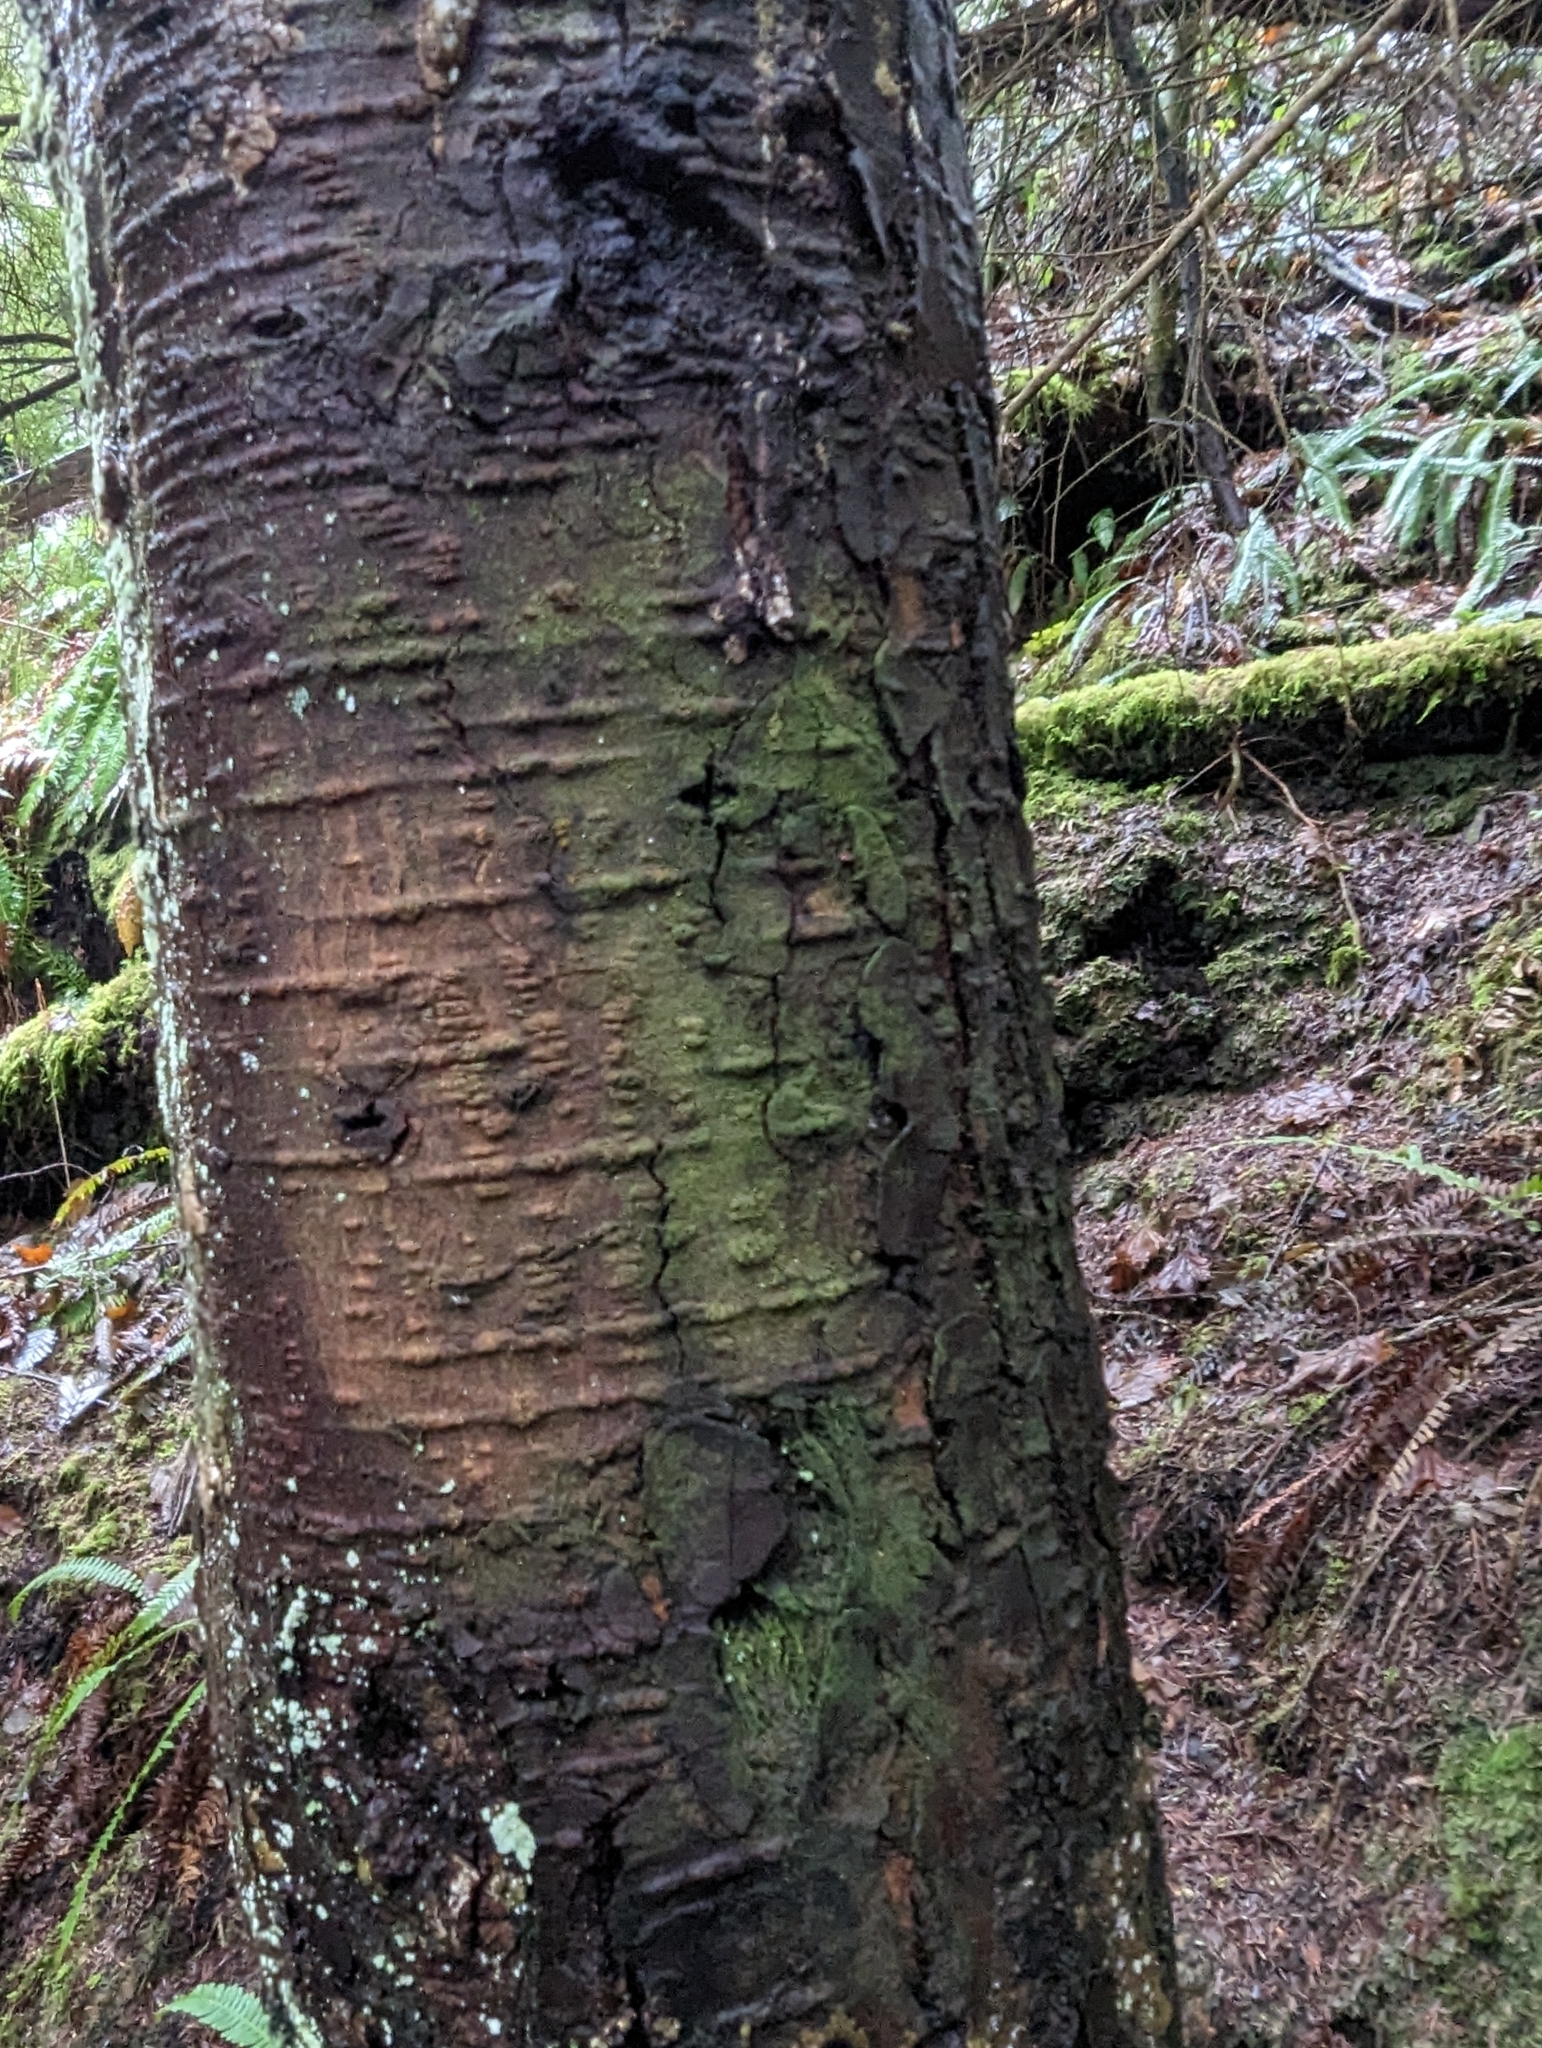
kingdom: Plantae
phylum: Tracheophyta
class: Pinopsida
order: Pinales
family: Pinaceae
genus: Tsuga
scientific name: Tsuga heterophylla
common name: Western hemlock
